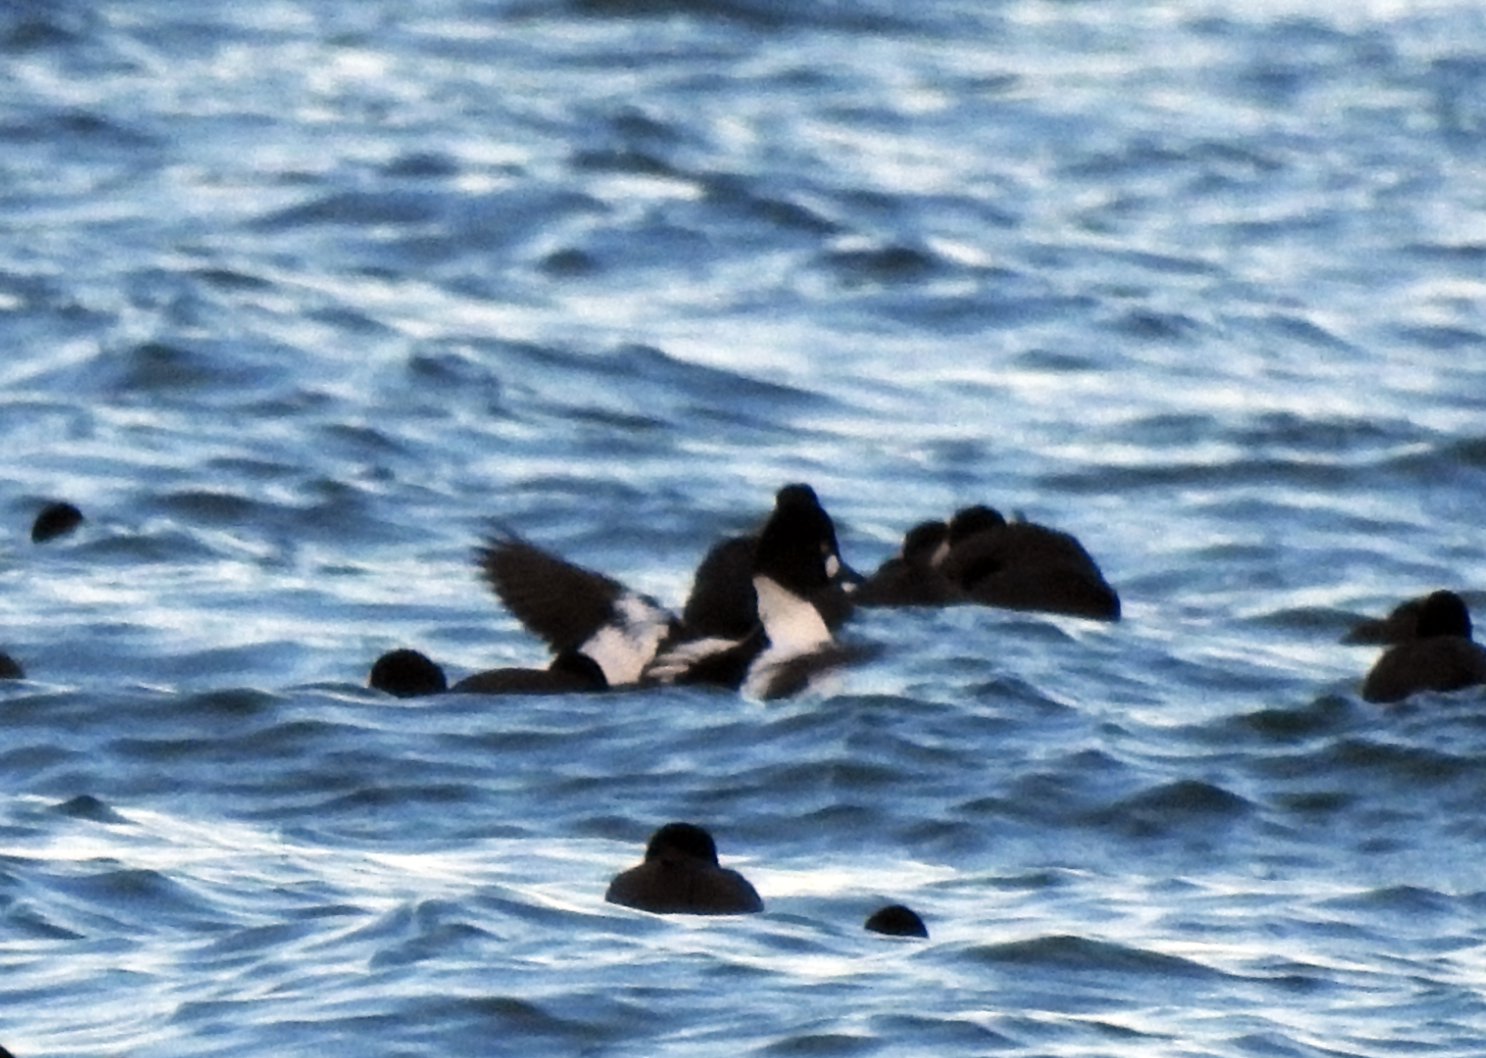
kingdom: Animalia
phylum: Chordata
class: Aves
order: Anseriformes
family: Anatidae
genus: Bucephala
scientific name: Bucephala clangula
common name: Common goldeneye
